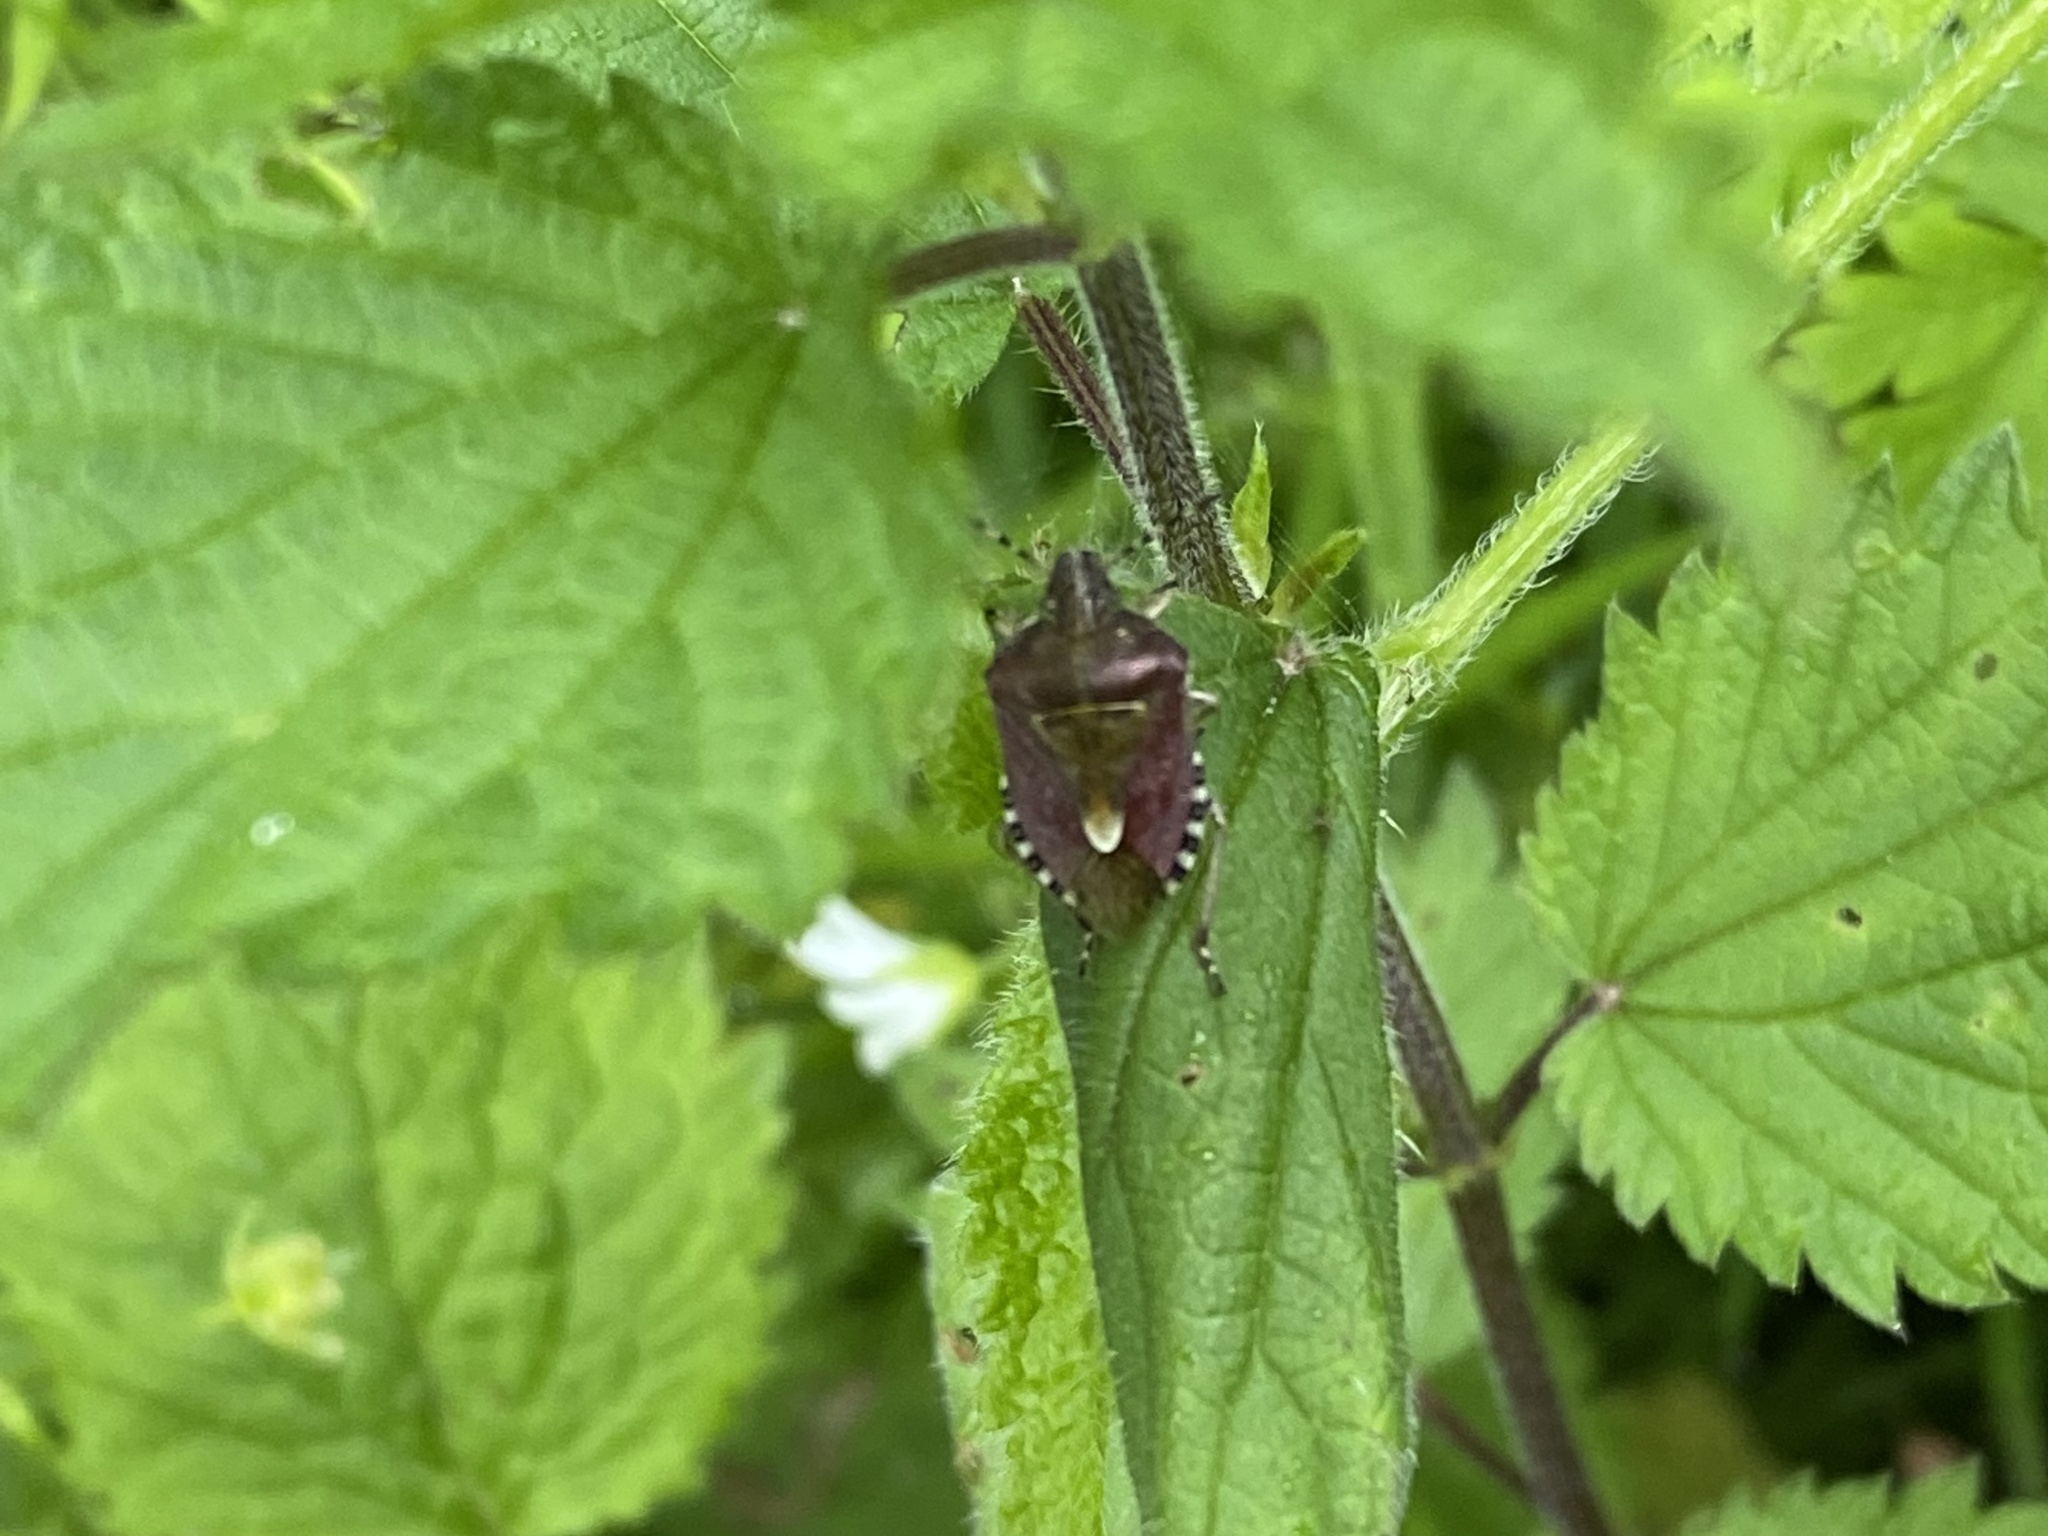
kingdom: Animalia
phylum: Arthropoda
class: Insecta
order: Hemiptera
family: Pentatomidae
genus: Dolycoris
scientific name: Dolycoris baccarum
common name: Sloe bug
